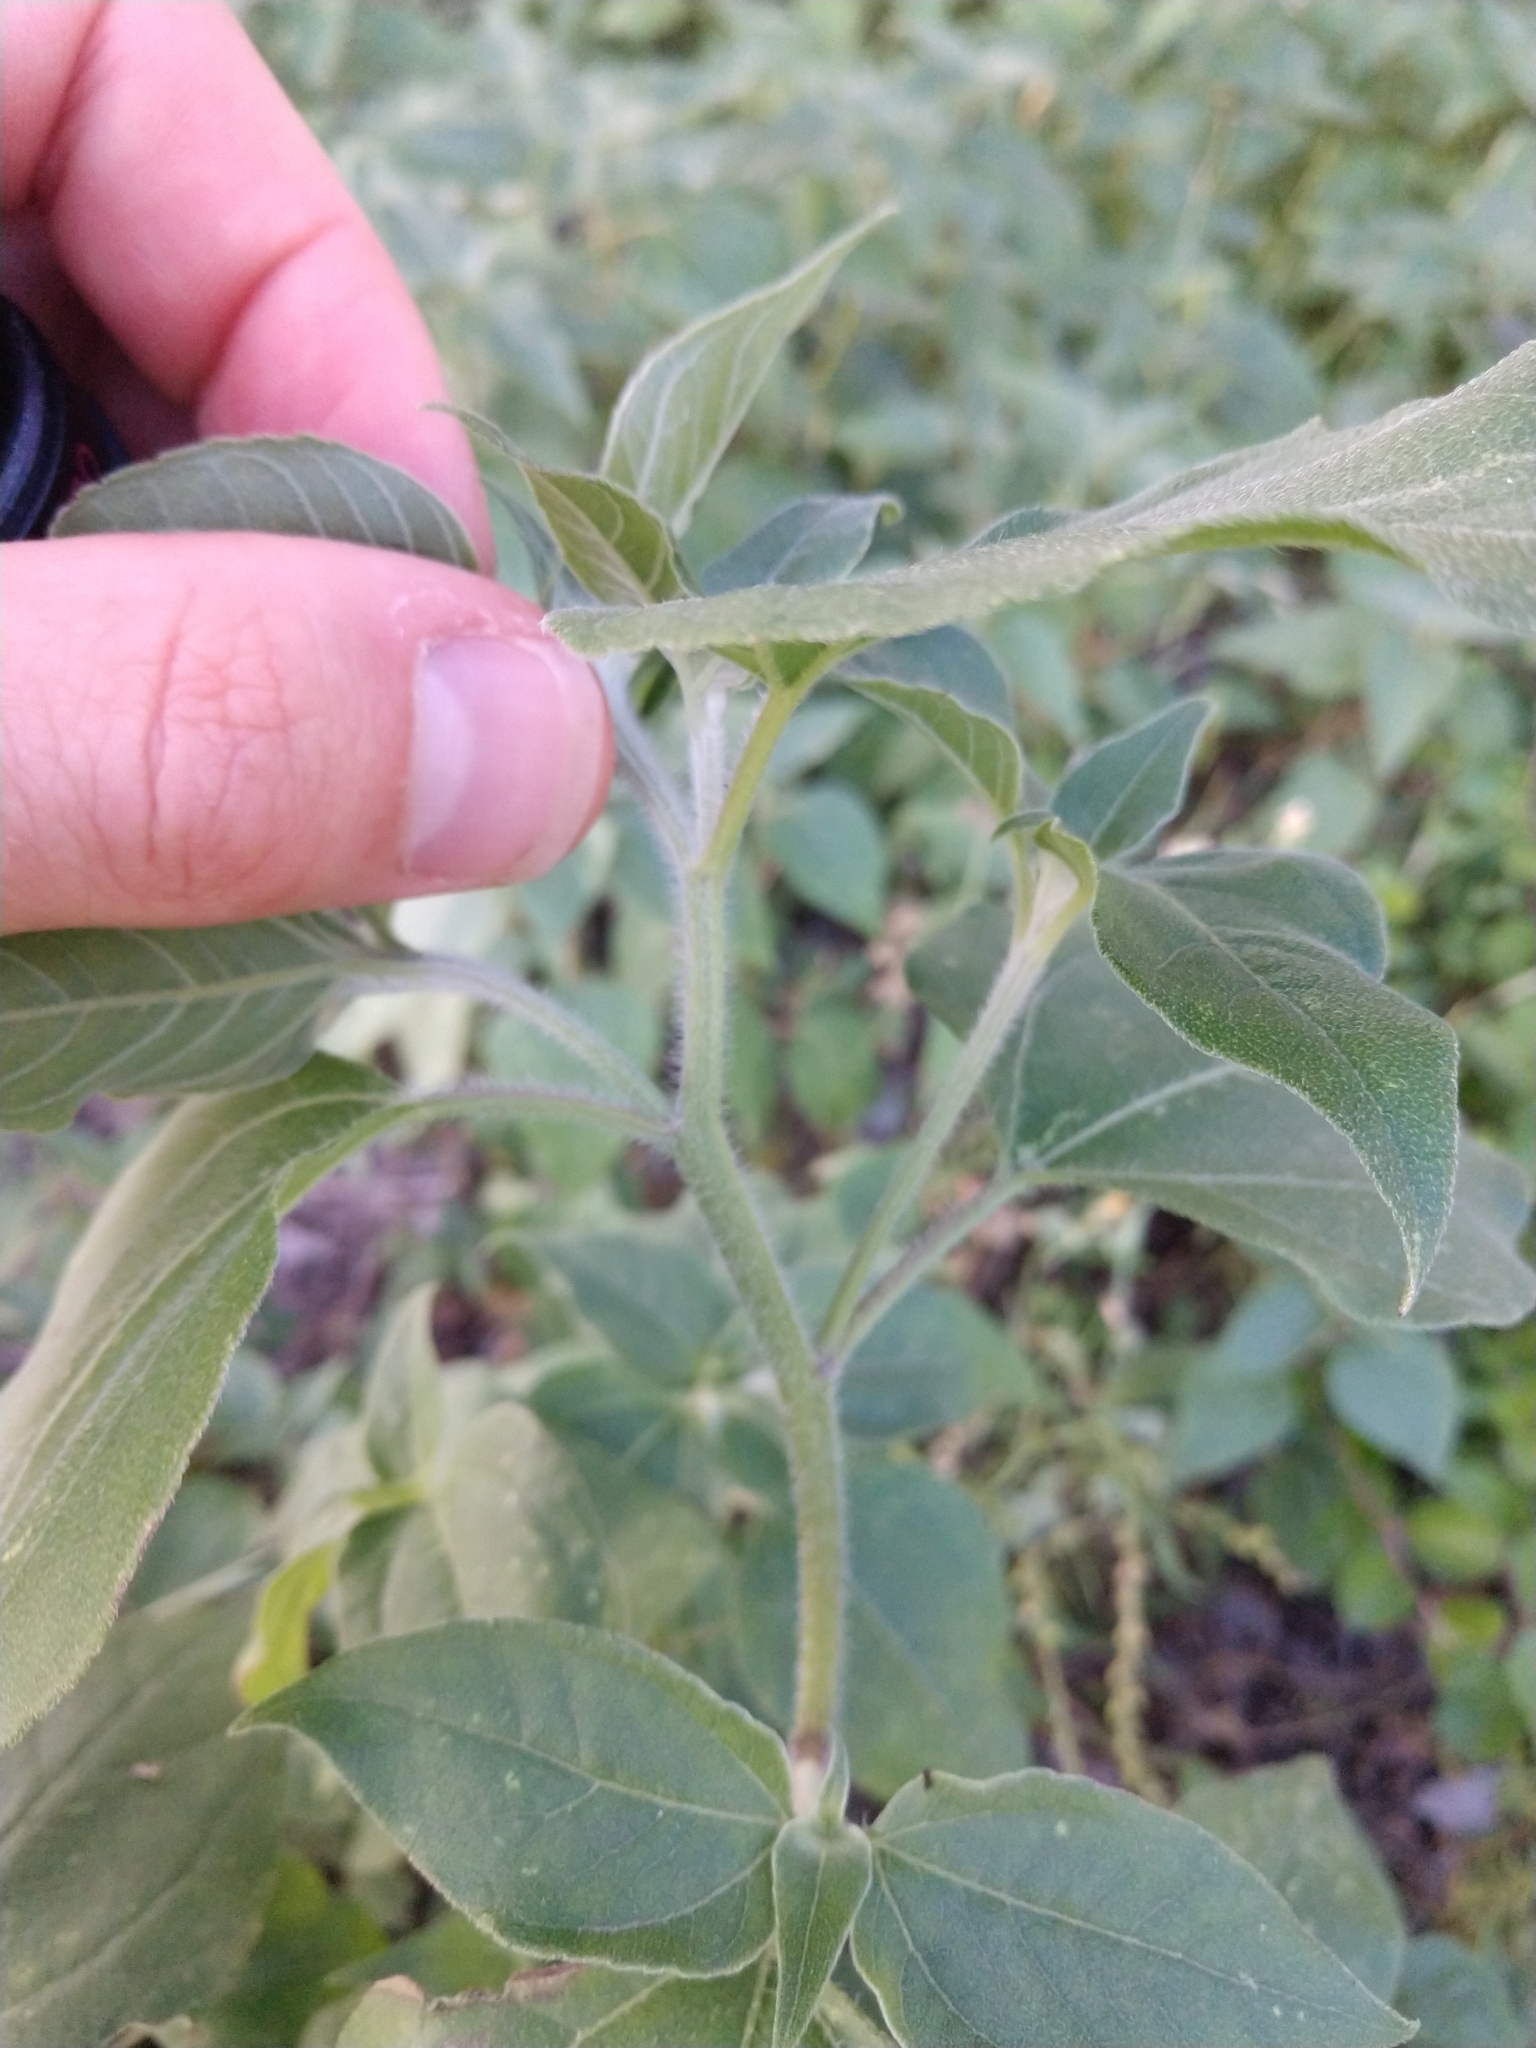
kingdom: Plantae
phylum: Tracheophyta
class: Magnoliopsida
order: Asterales
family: Asteraceae
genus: Viguiera
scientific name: Viguiera dentata
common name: Toothleaf
